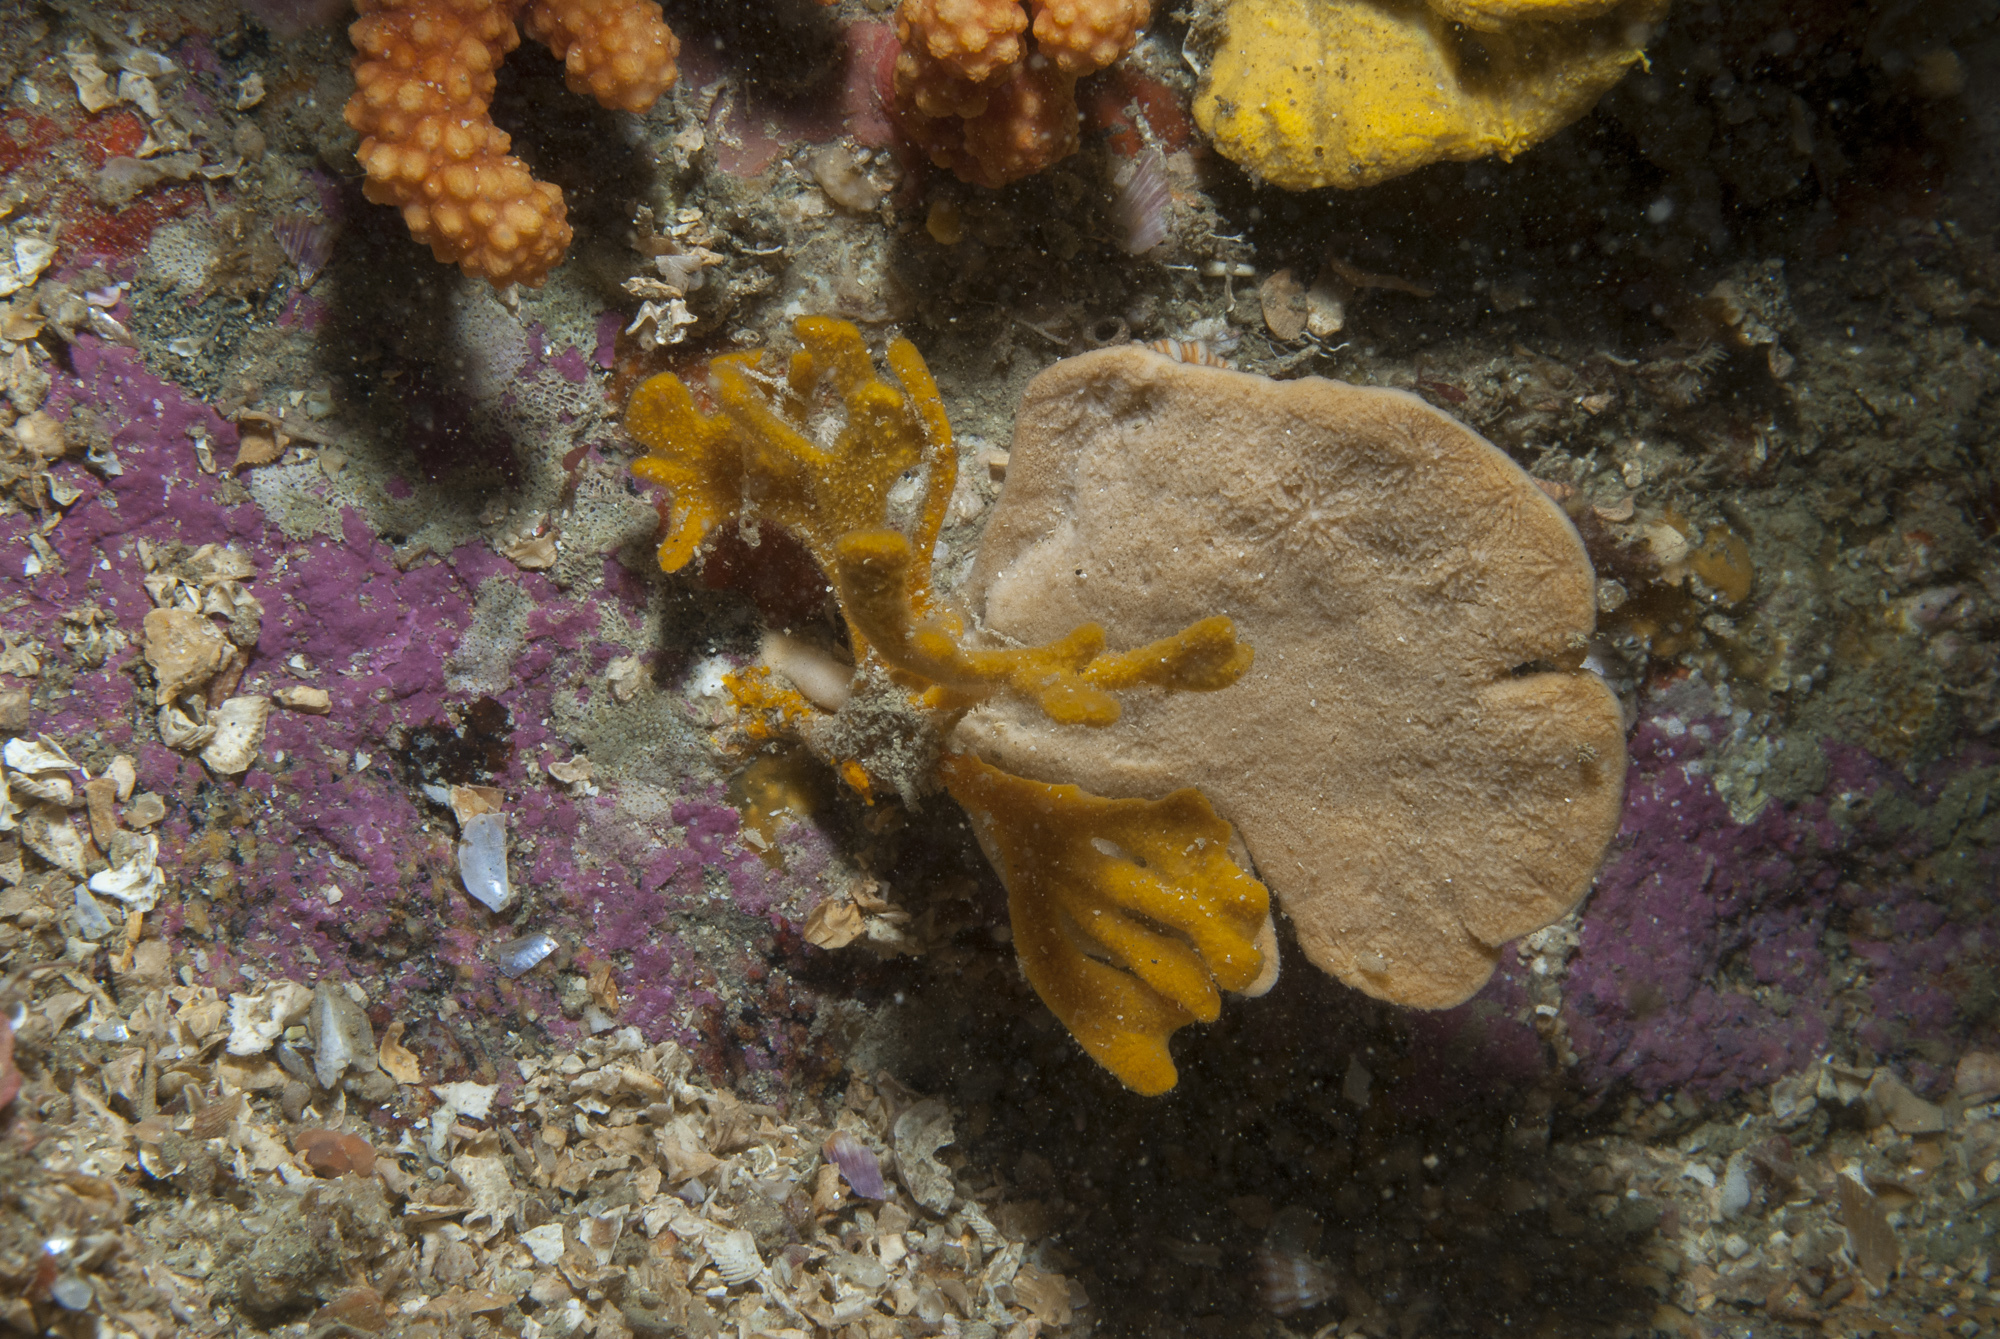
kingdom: Animalia
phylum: Porifera
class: Demospongiae
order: Axinellida
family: Axinellidae
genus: Axinella
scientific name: Axinella flustra
